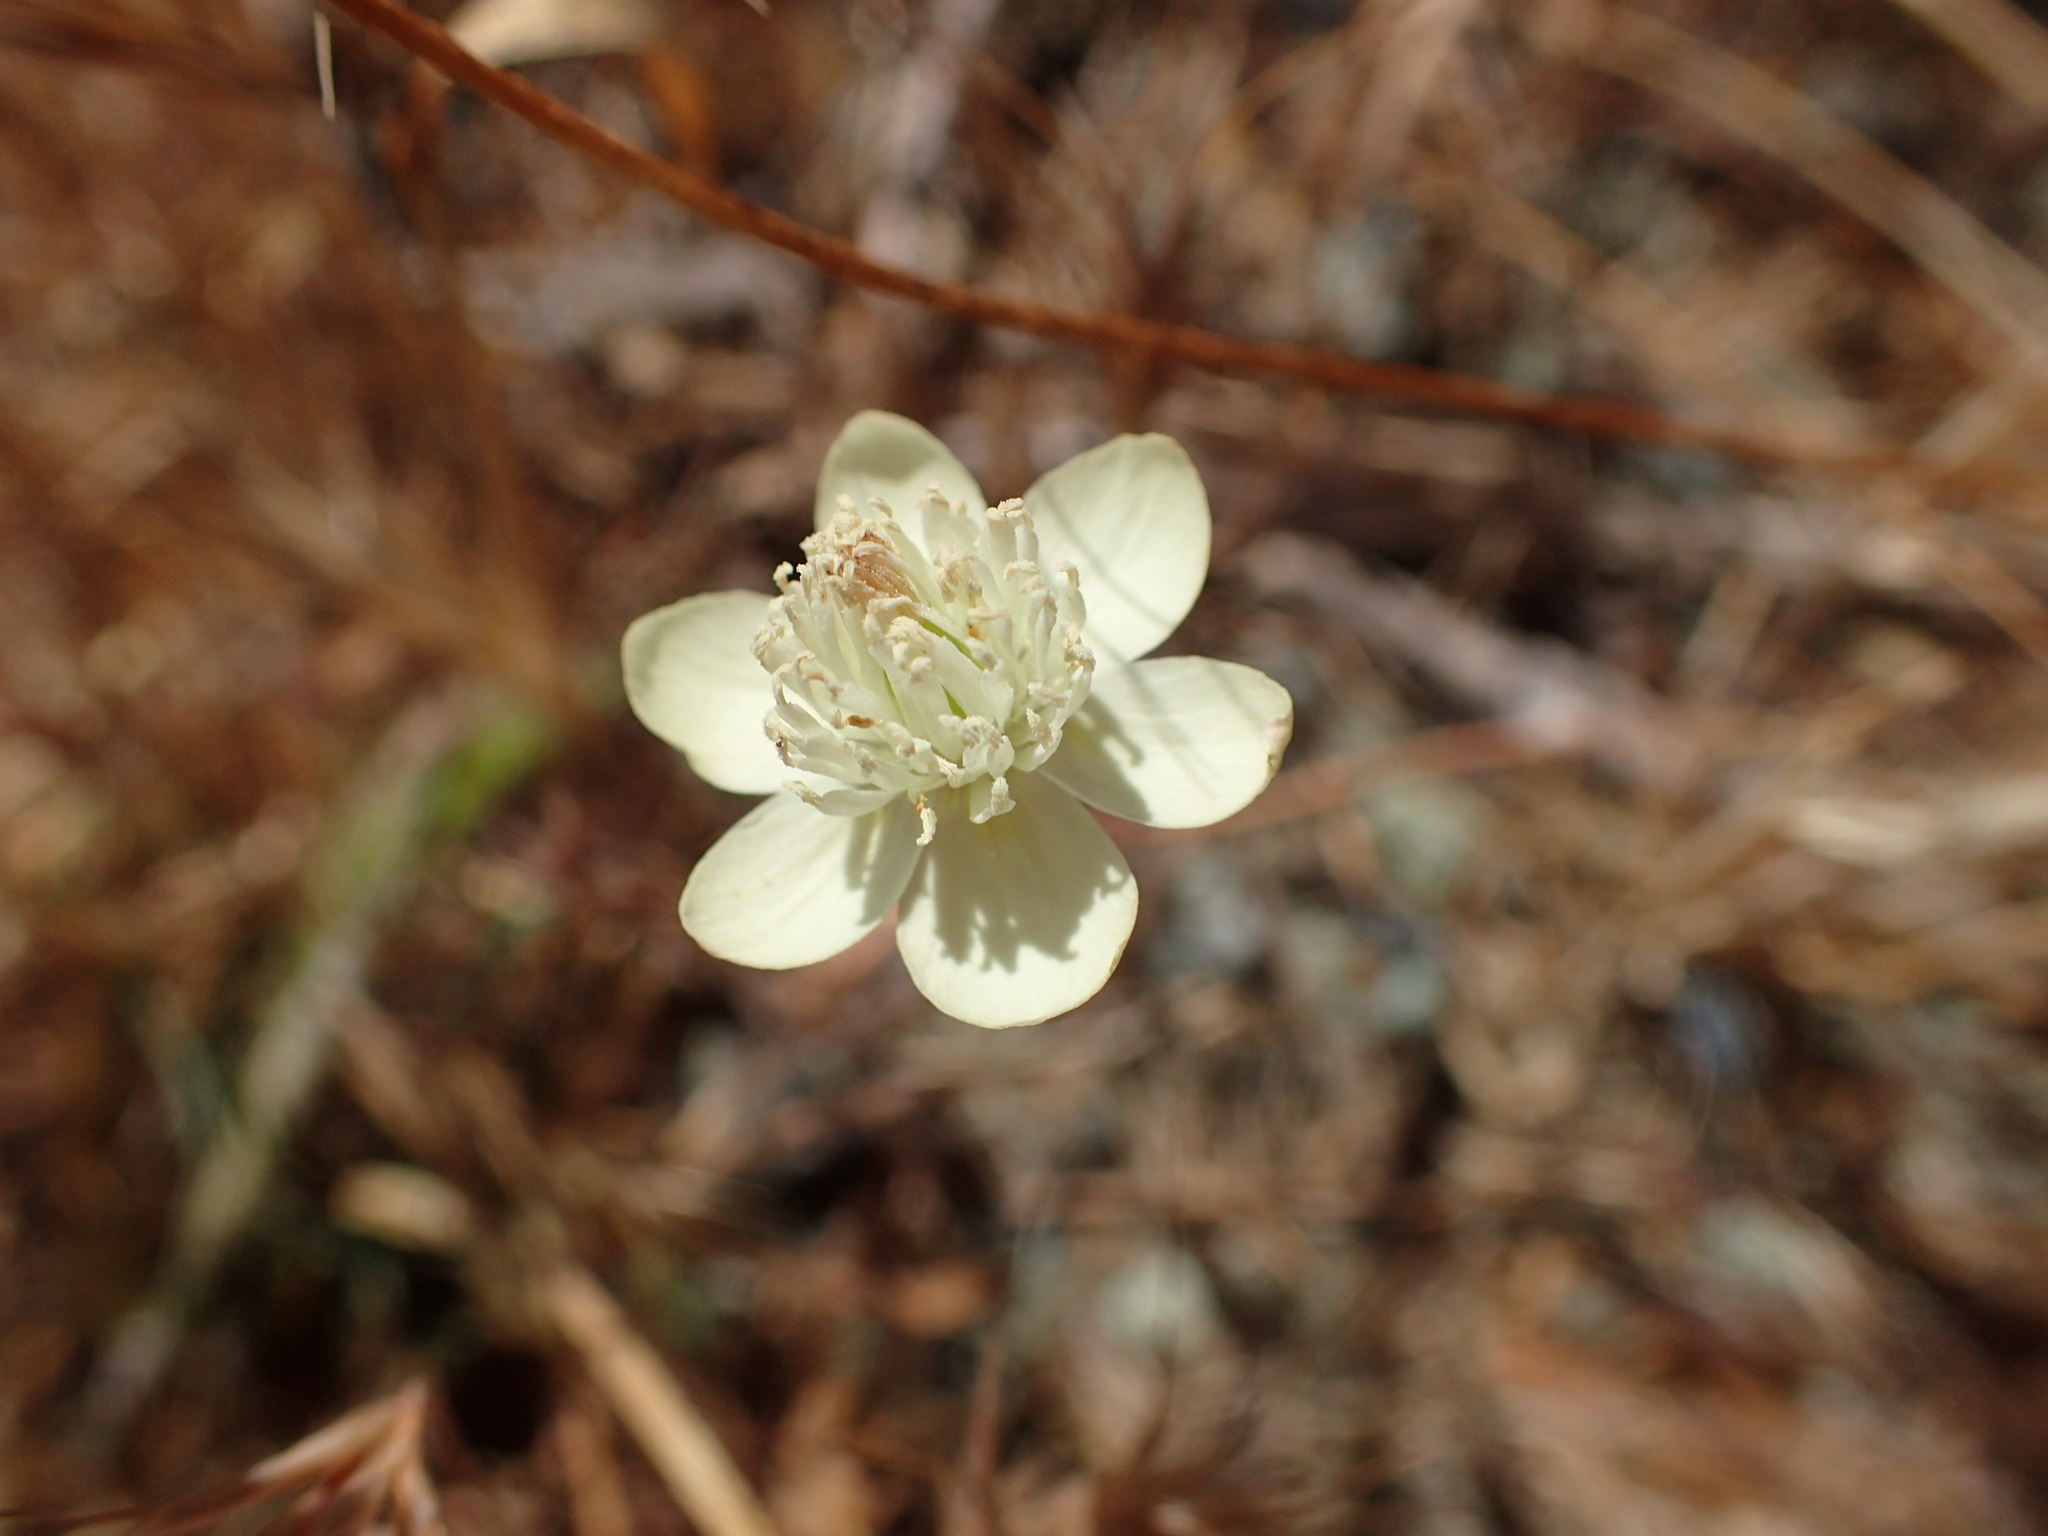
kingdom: Plantae
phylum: Tracheophyta
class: Magnoliopsida
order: Ranunculales
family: Papaveraceae
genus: Platystemon
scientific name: Platystemon californicus
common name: Cream-cups
